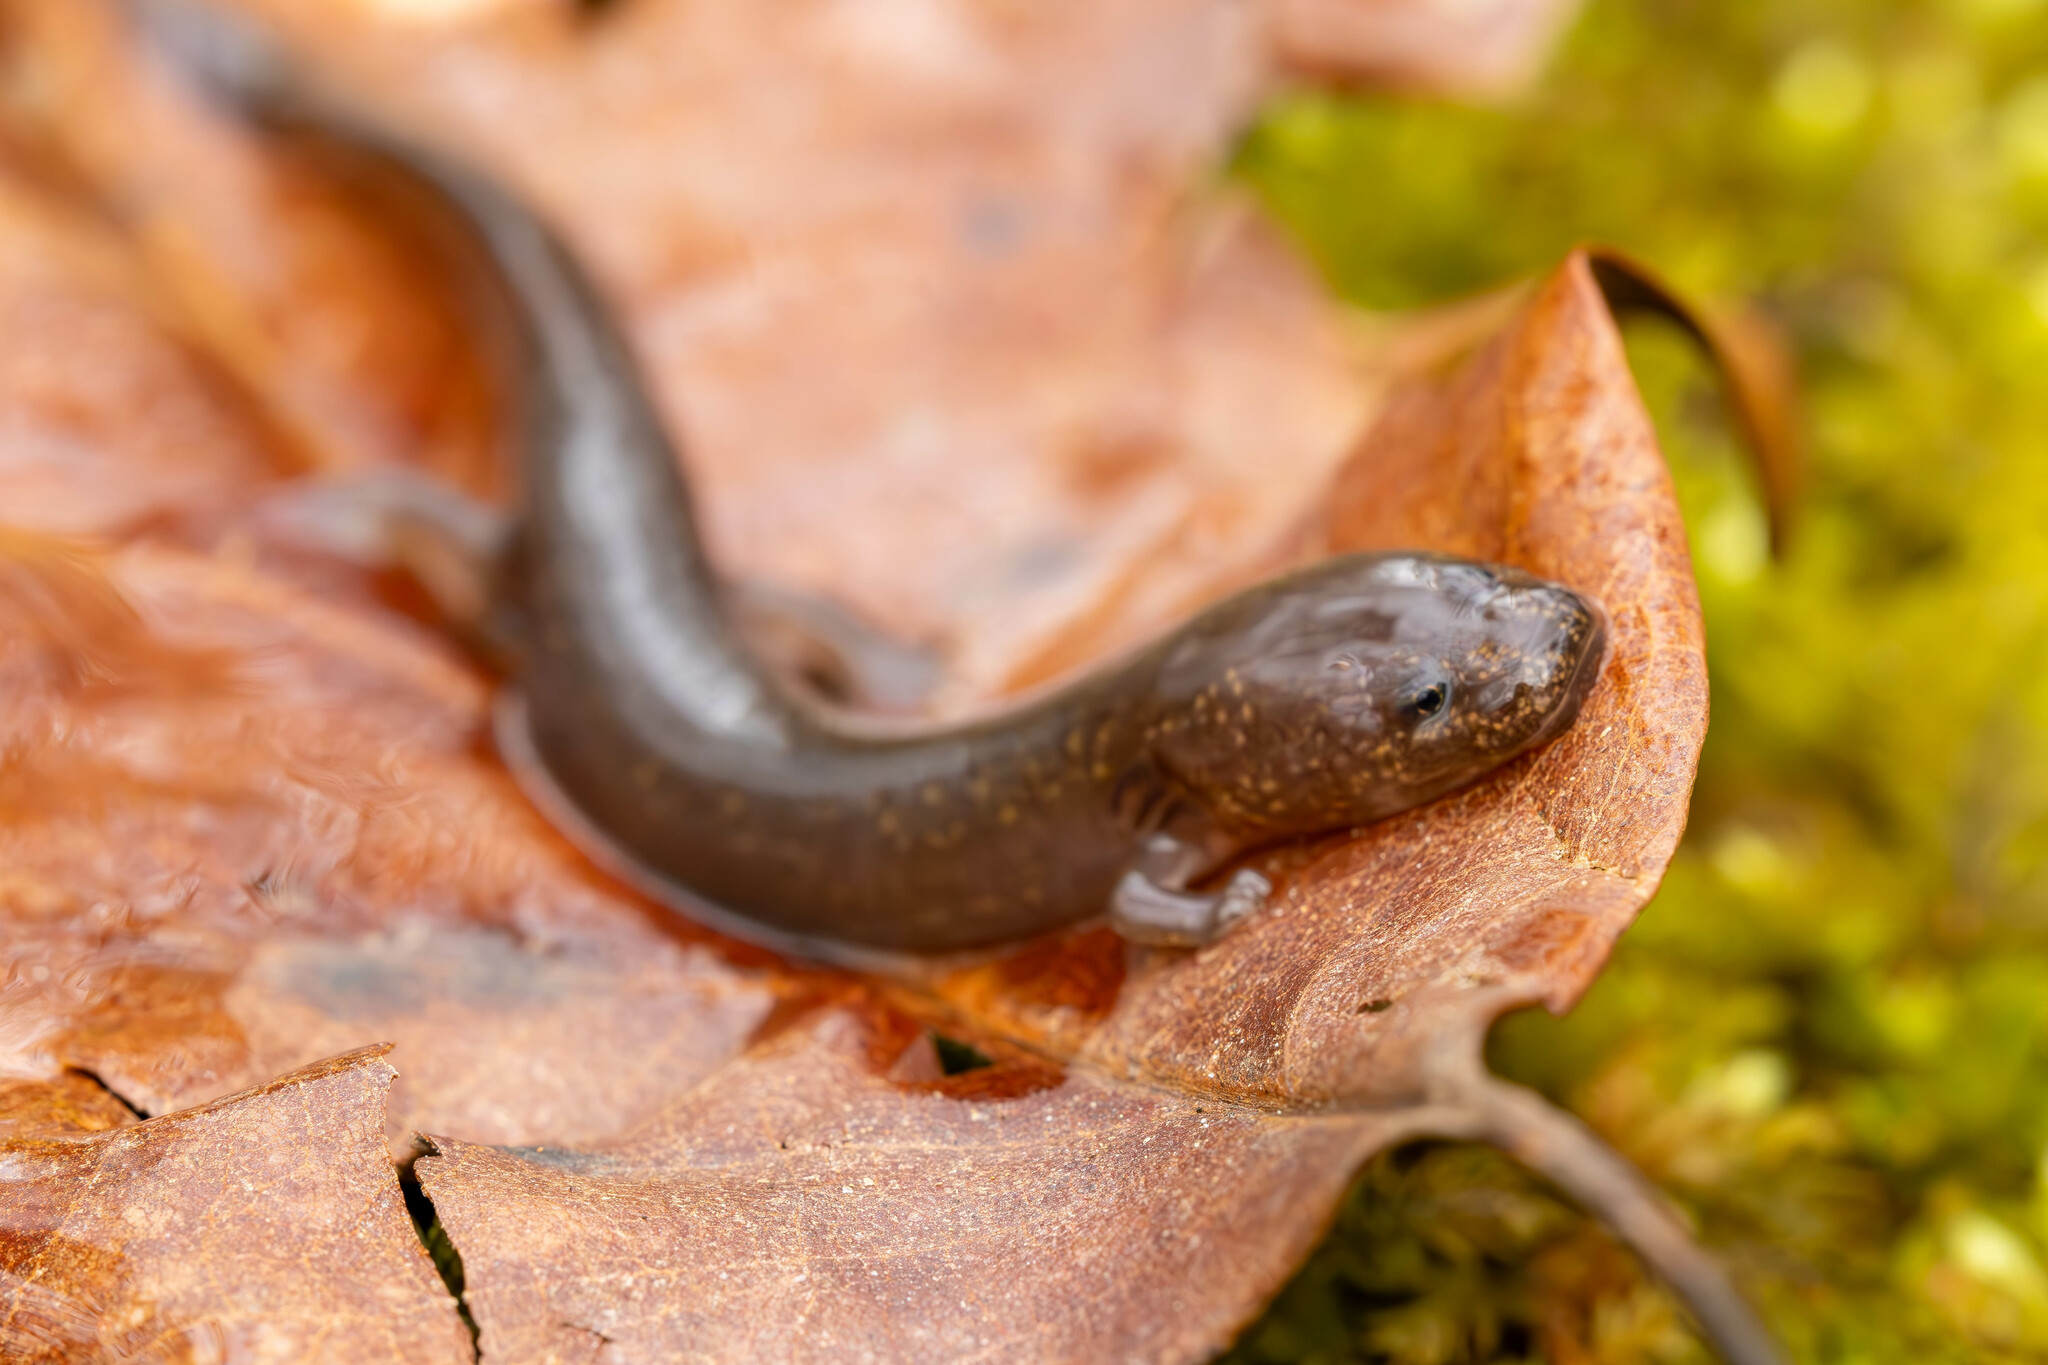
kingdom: Animalia
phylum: Chordata
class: Amphibia
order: Caudata
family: Plethodontidae
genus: Gyrinophilus
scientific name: Gyrinophilus porphyriticus
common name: Spring salamander
